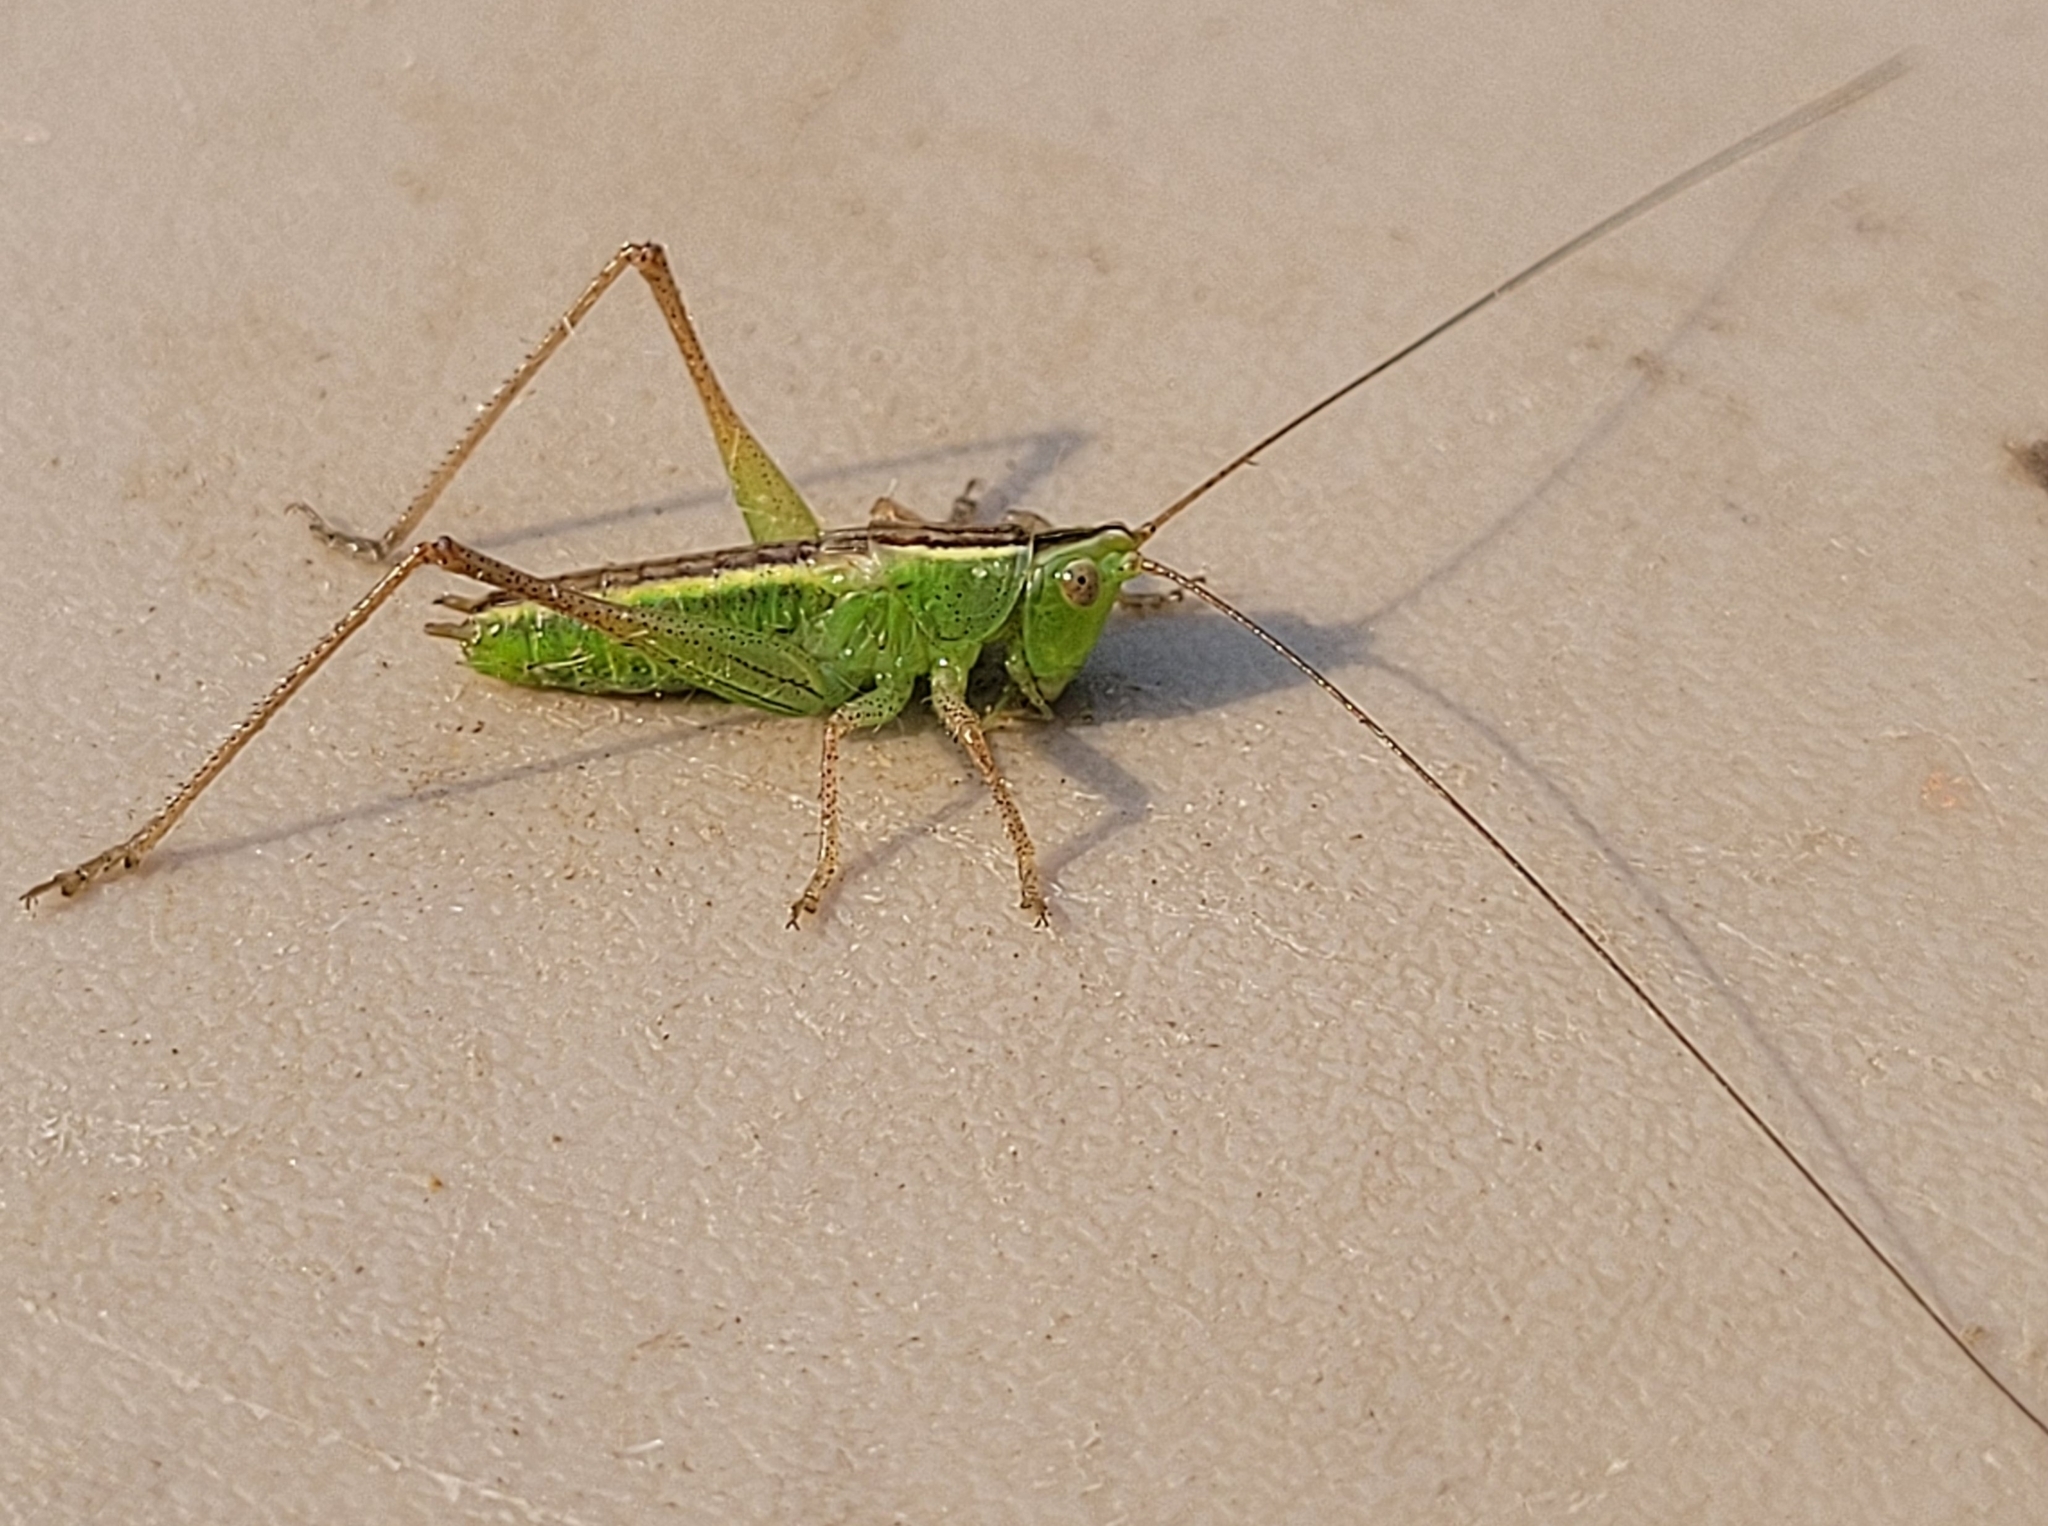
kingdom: Animalia
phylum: Arthropoda
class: Insecta
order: Orthoptera
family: Tettigoniidae
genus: Conocephalus
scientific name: Conocephalus fasciatus
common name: Slender meadow katydid
